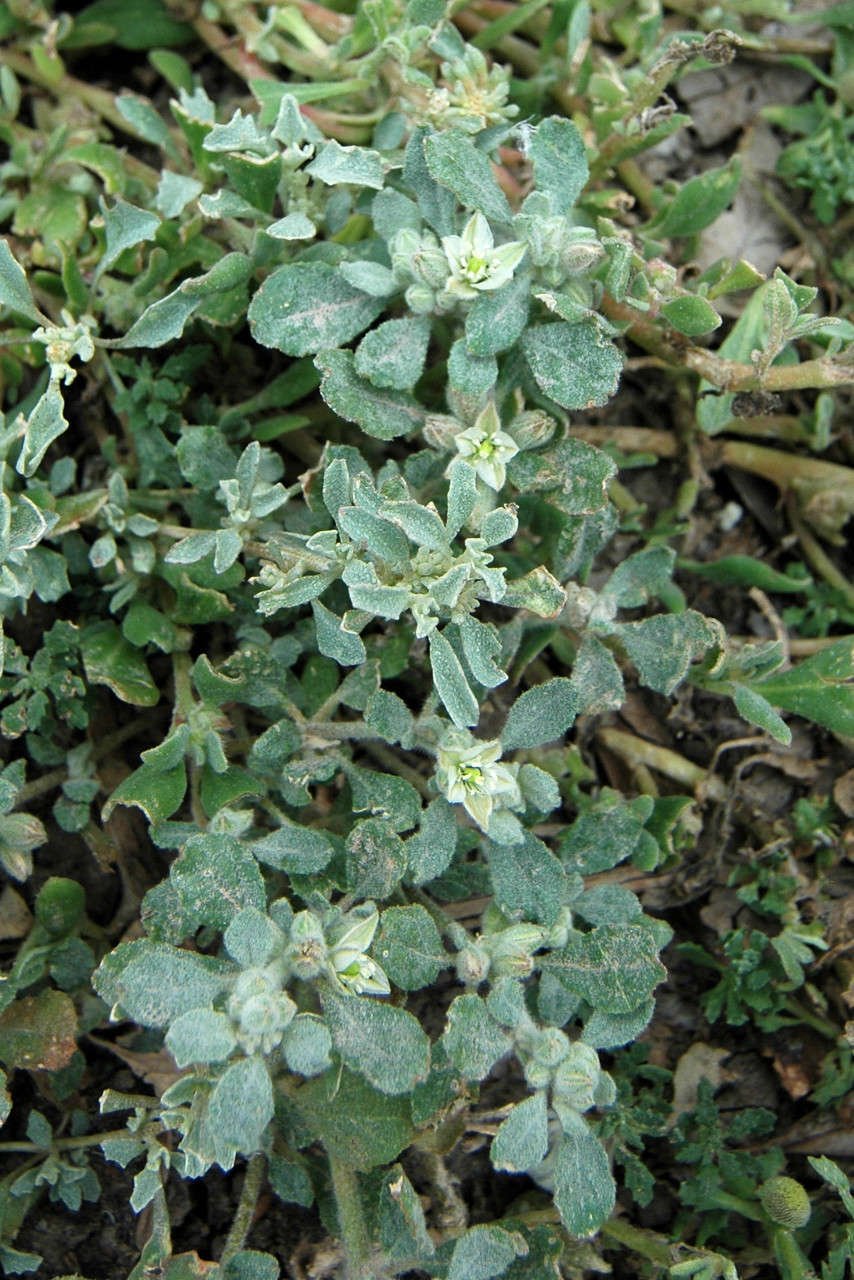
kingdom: Plantae
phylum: Tracheophyta
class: Magnoliopsida
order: Caryophyllales
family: Molluginaceae
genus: Glinus
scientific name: Glinus lotoides
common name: Lotus sweetjuice
